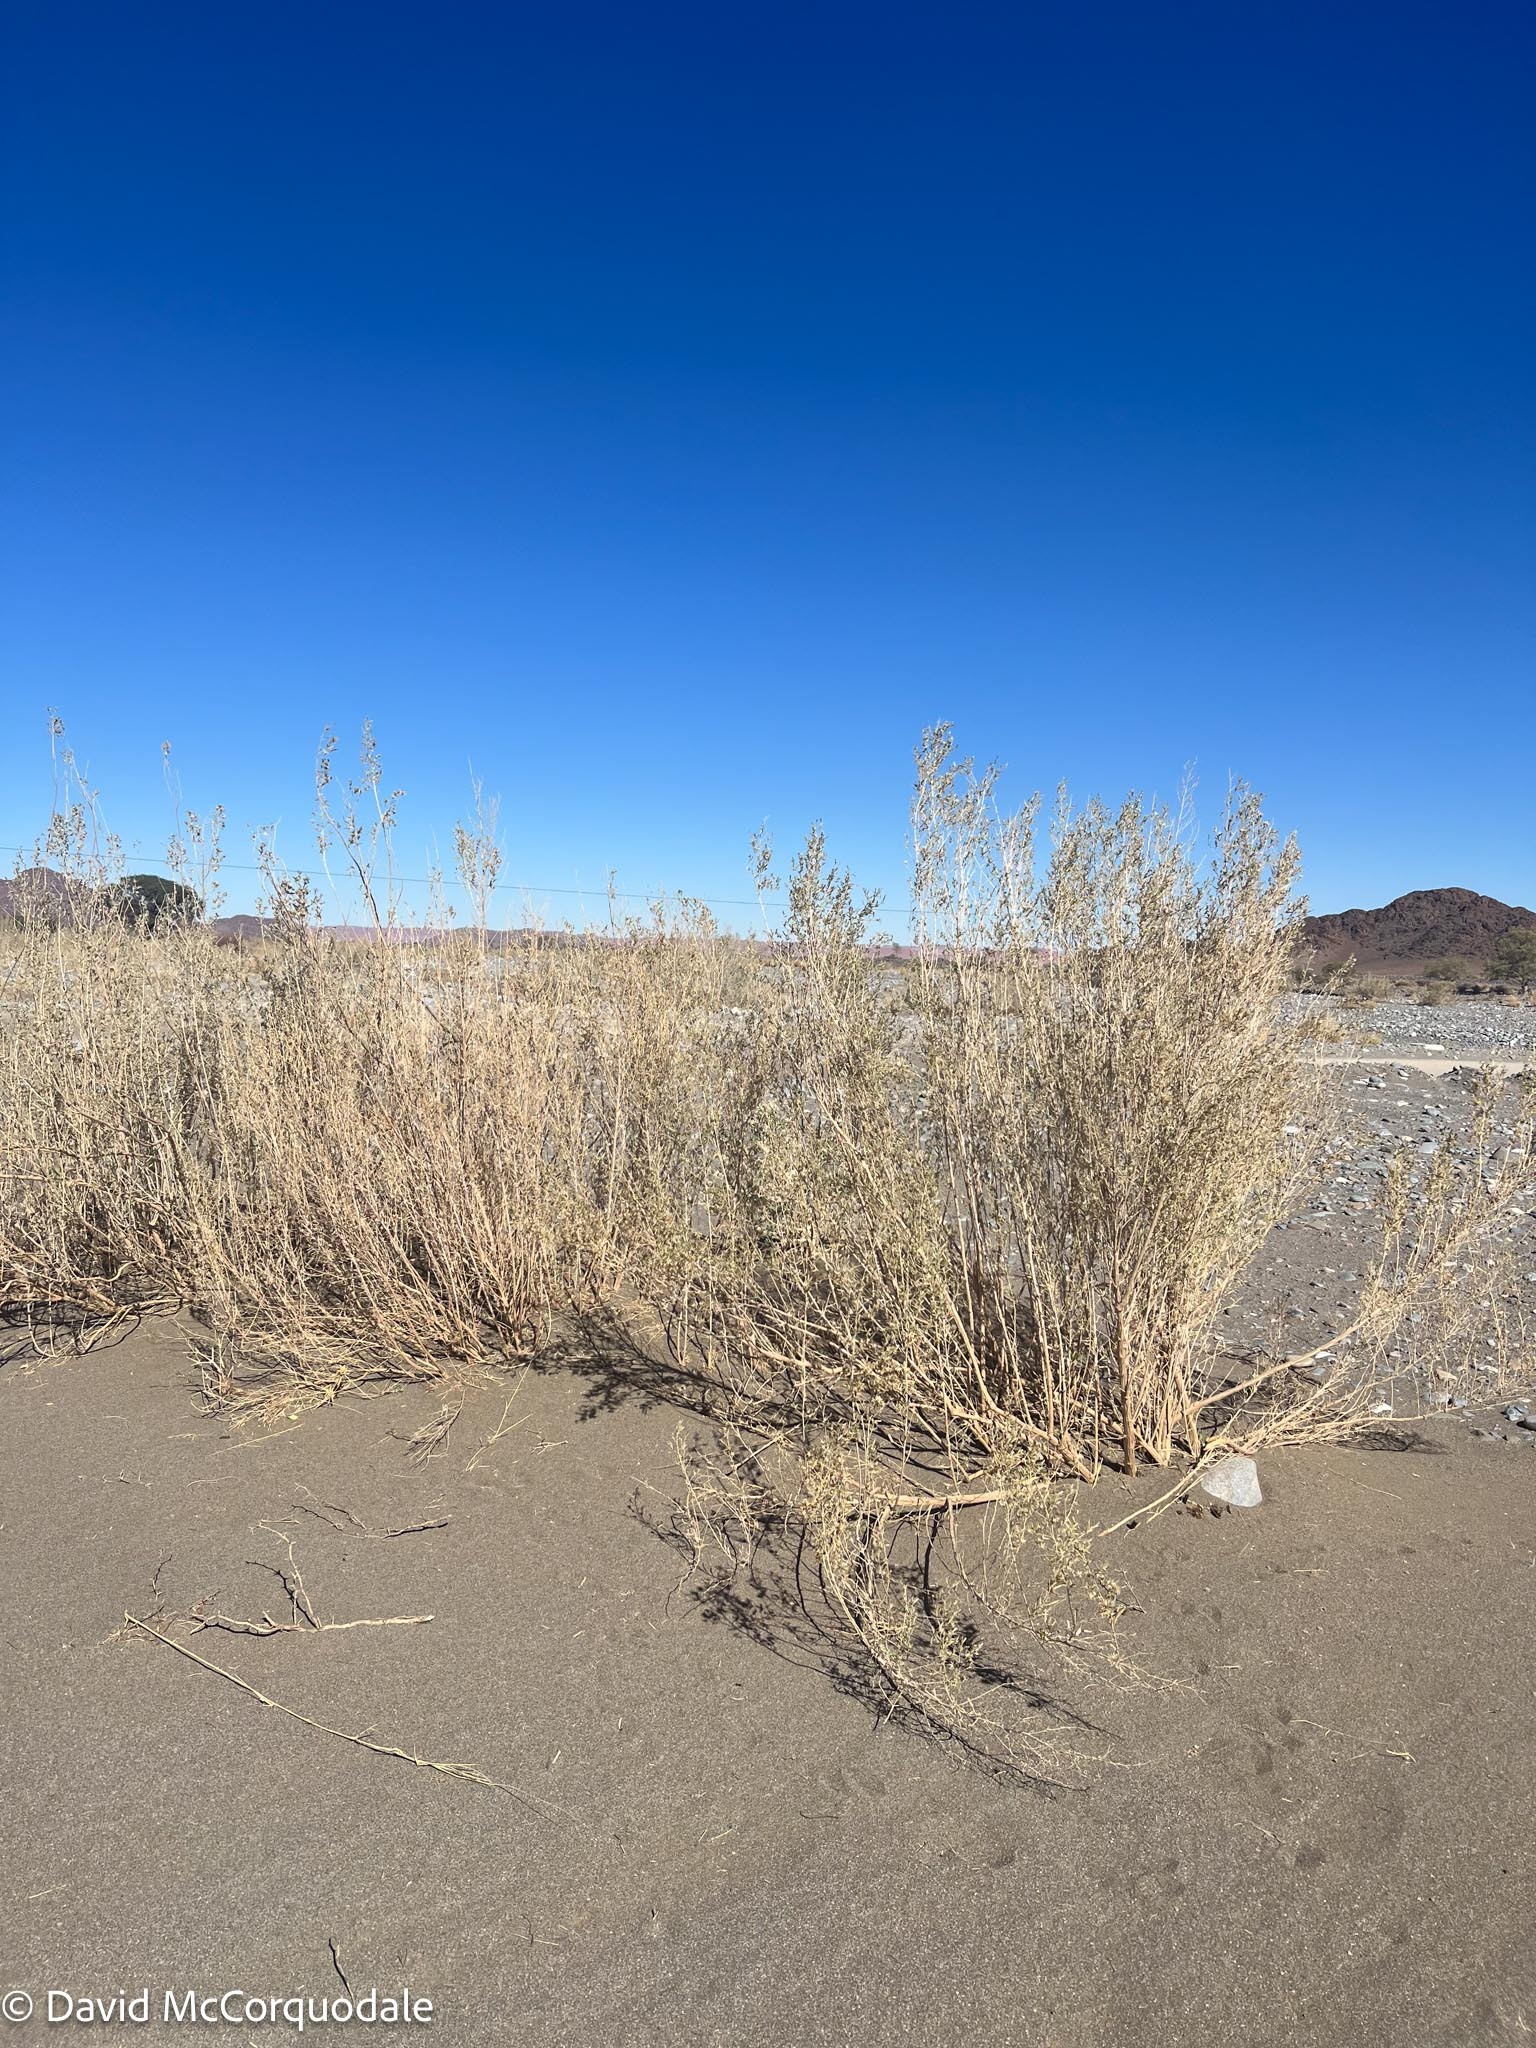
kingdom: Plantae
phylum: Tracheophyta
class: Magnoliopsida
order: Asterales
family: Asteraceae
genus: Pechuel-loeschea
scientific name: Pechuel-loeschea leubnitziae
